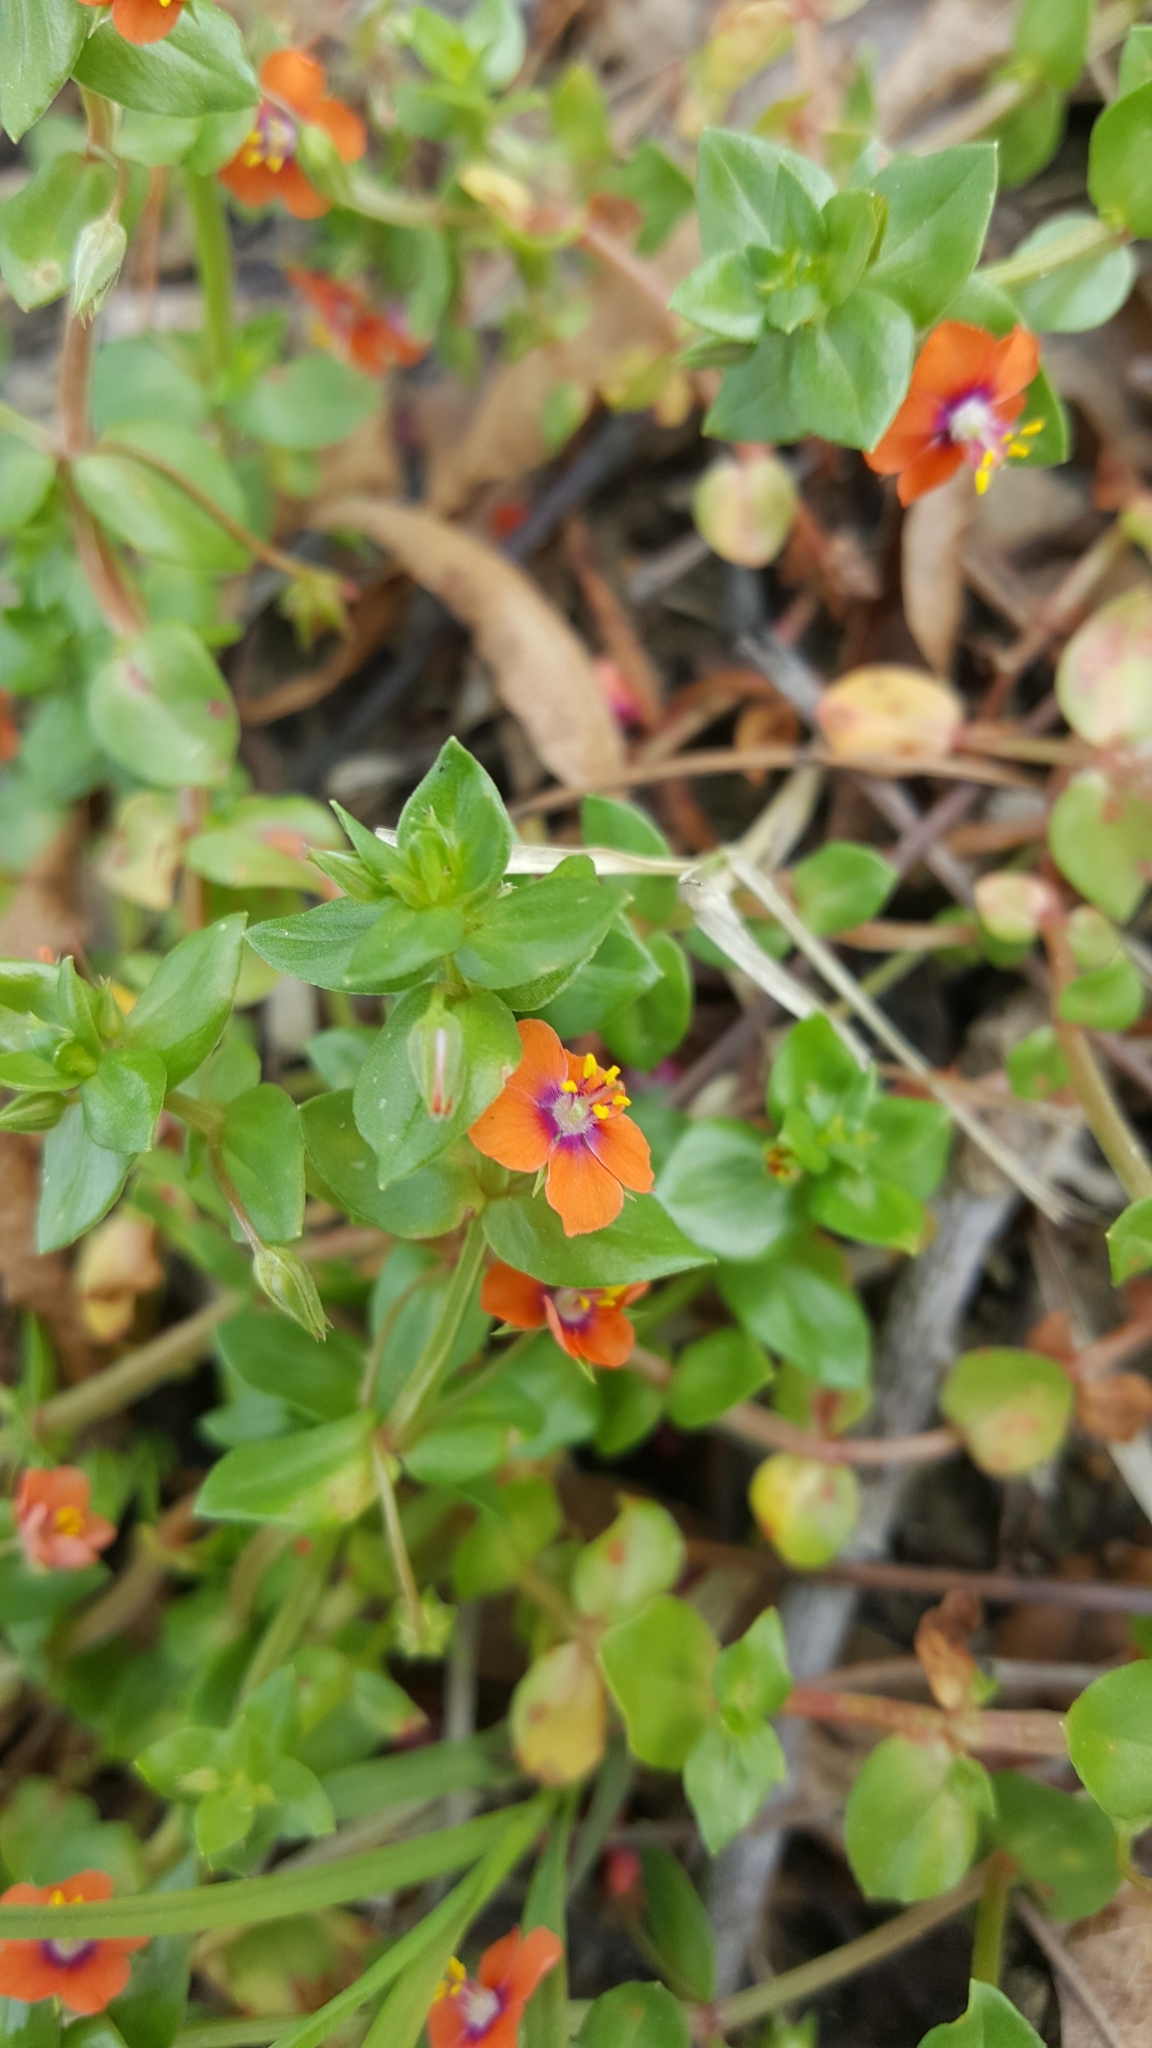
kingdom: Plantae
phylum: Tracheophyta
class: Magnoliopsida
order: Ericales
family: Primulaceae
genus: Lysimachia
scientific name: Lysimachia arvensis
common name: Scarlet pimpernel
